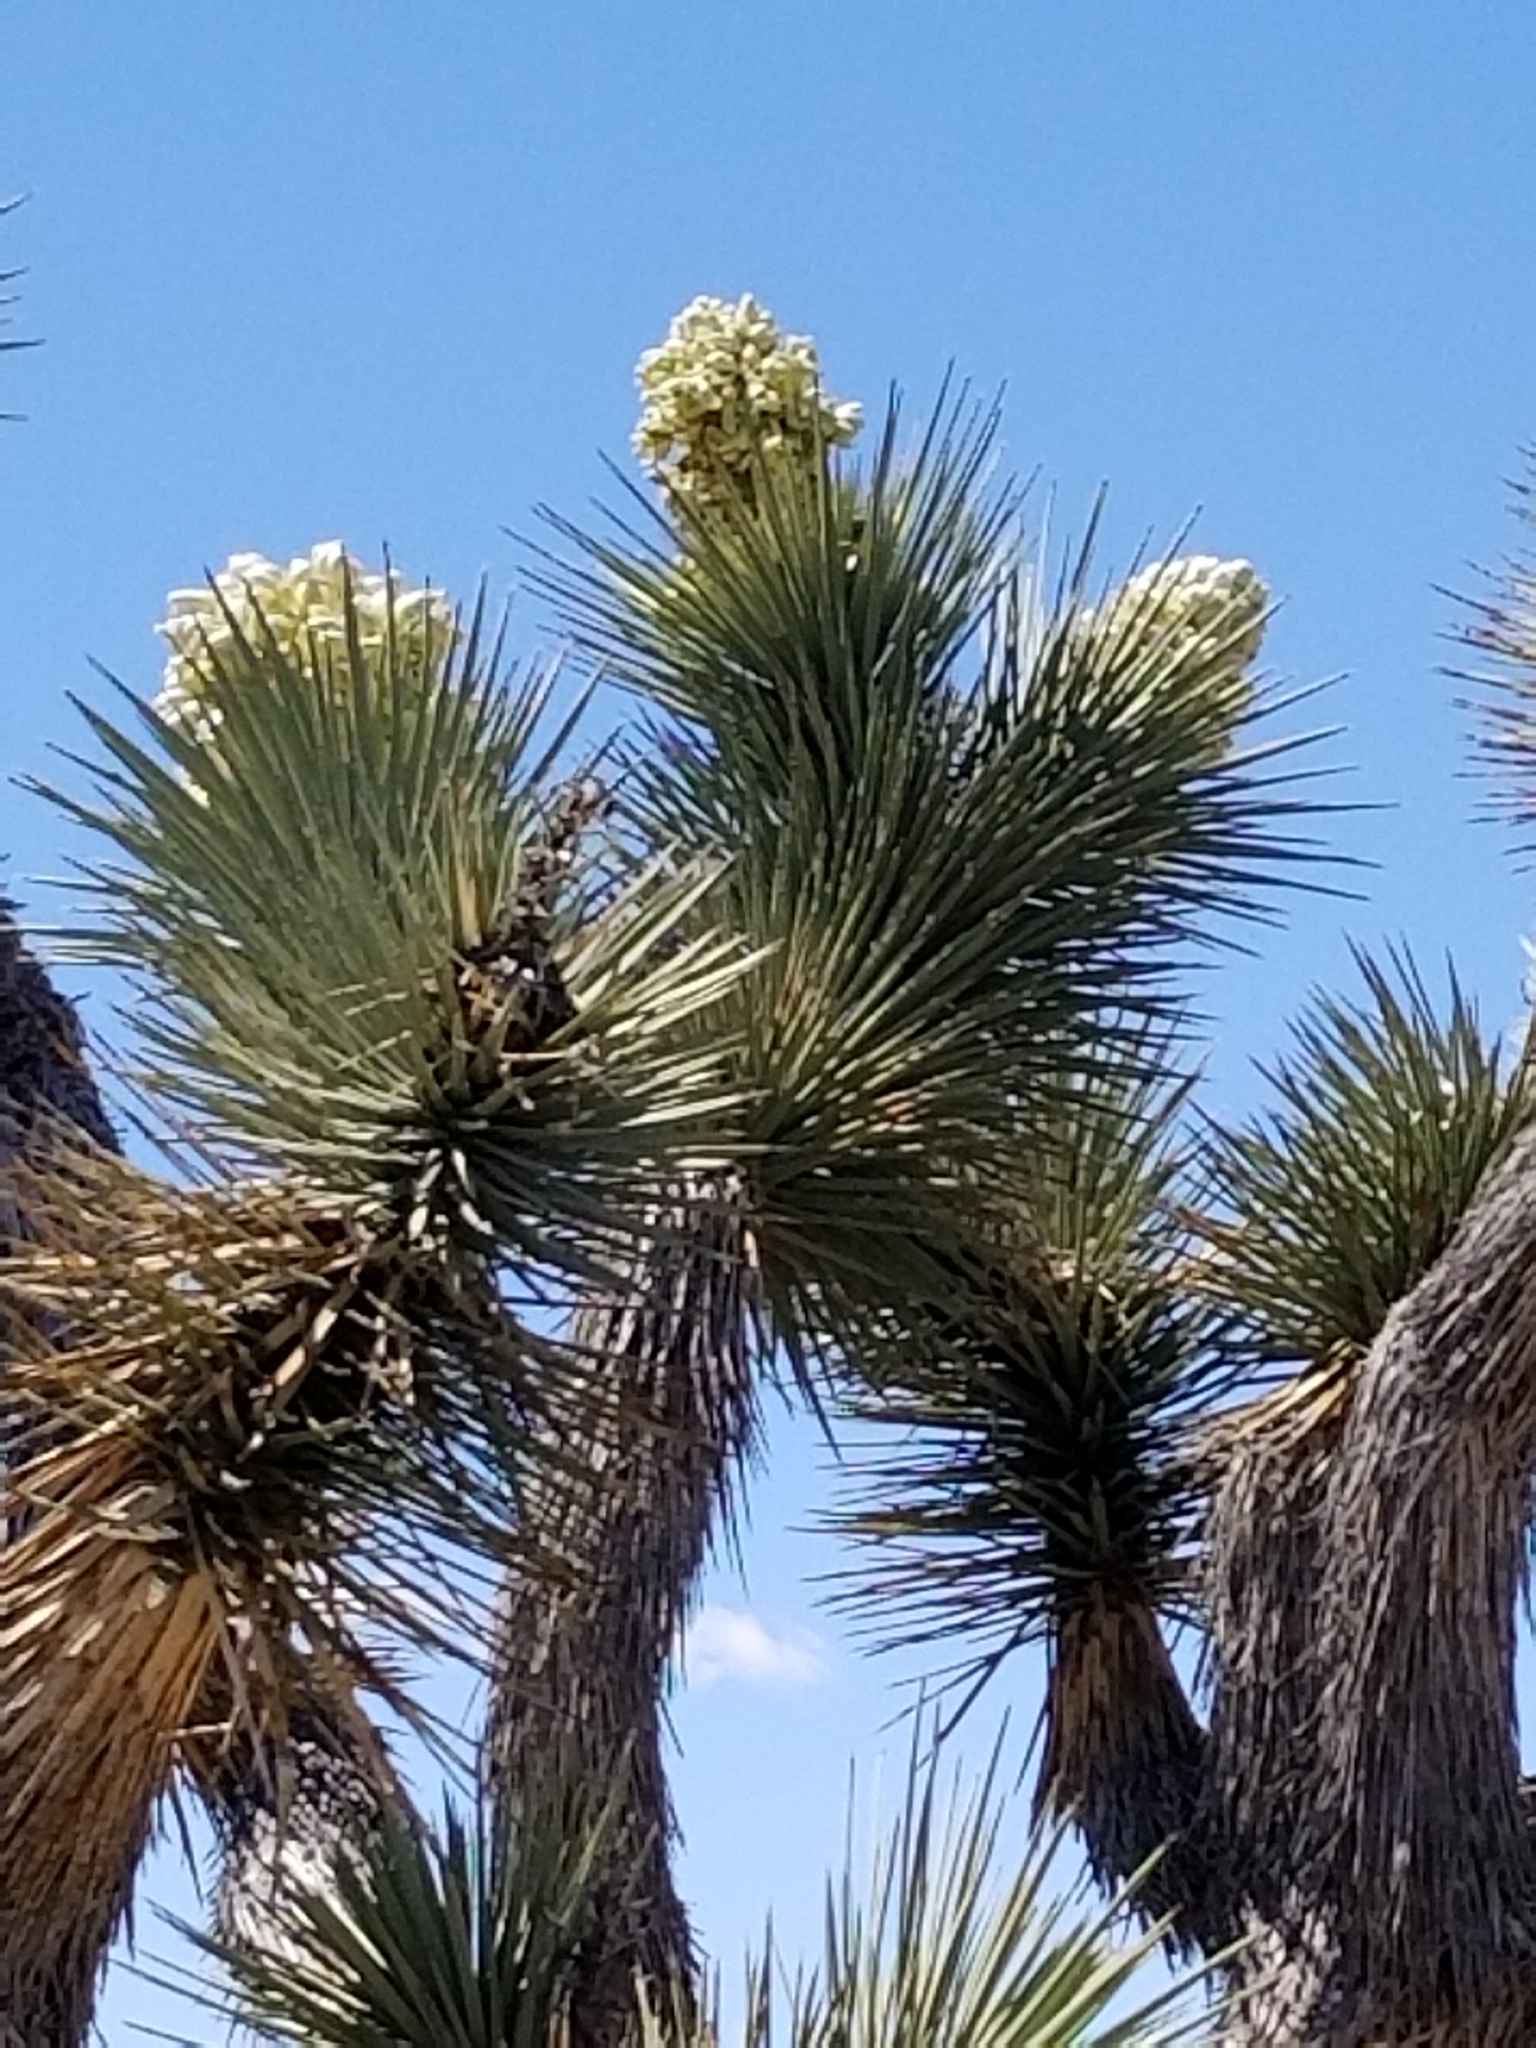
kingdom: Plantae
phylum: Tracheophyta
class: Liliopsida
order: Asparagales
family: Asparagaceae
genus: Yucca
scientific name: Yucca brevifolia
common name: Joshua tree
